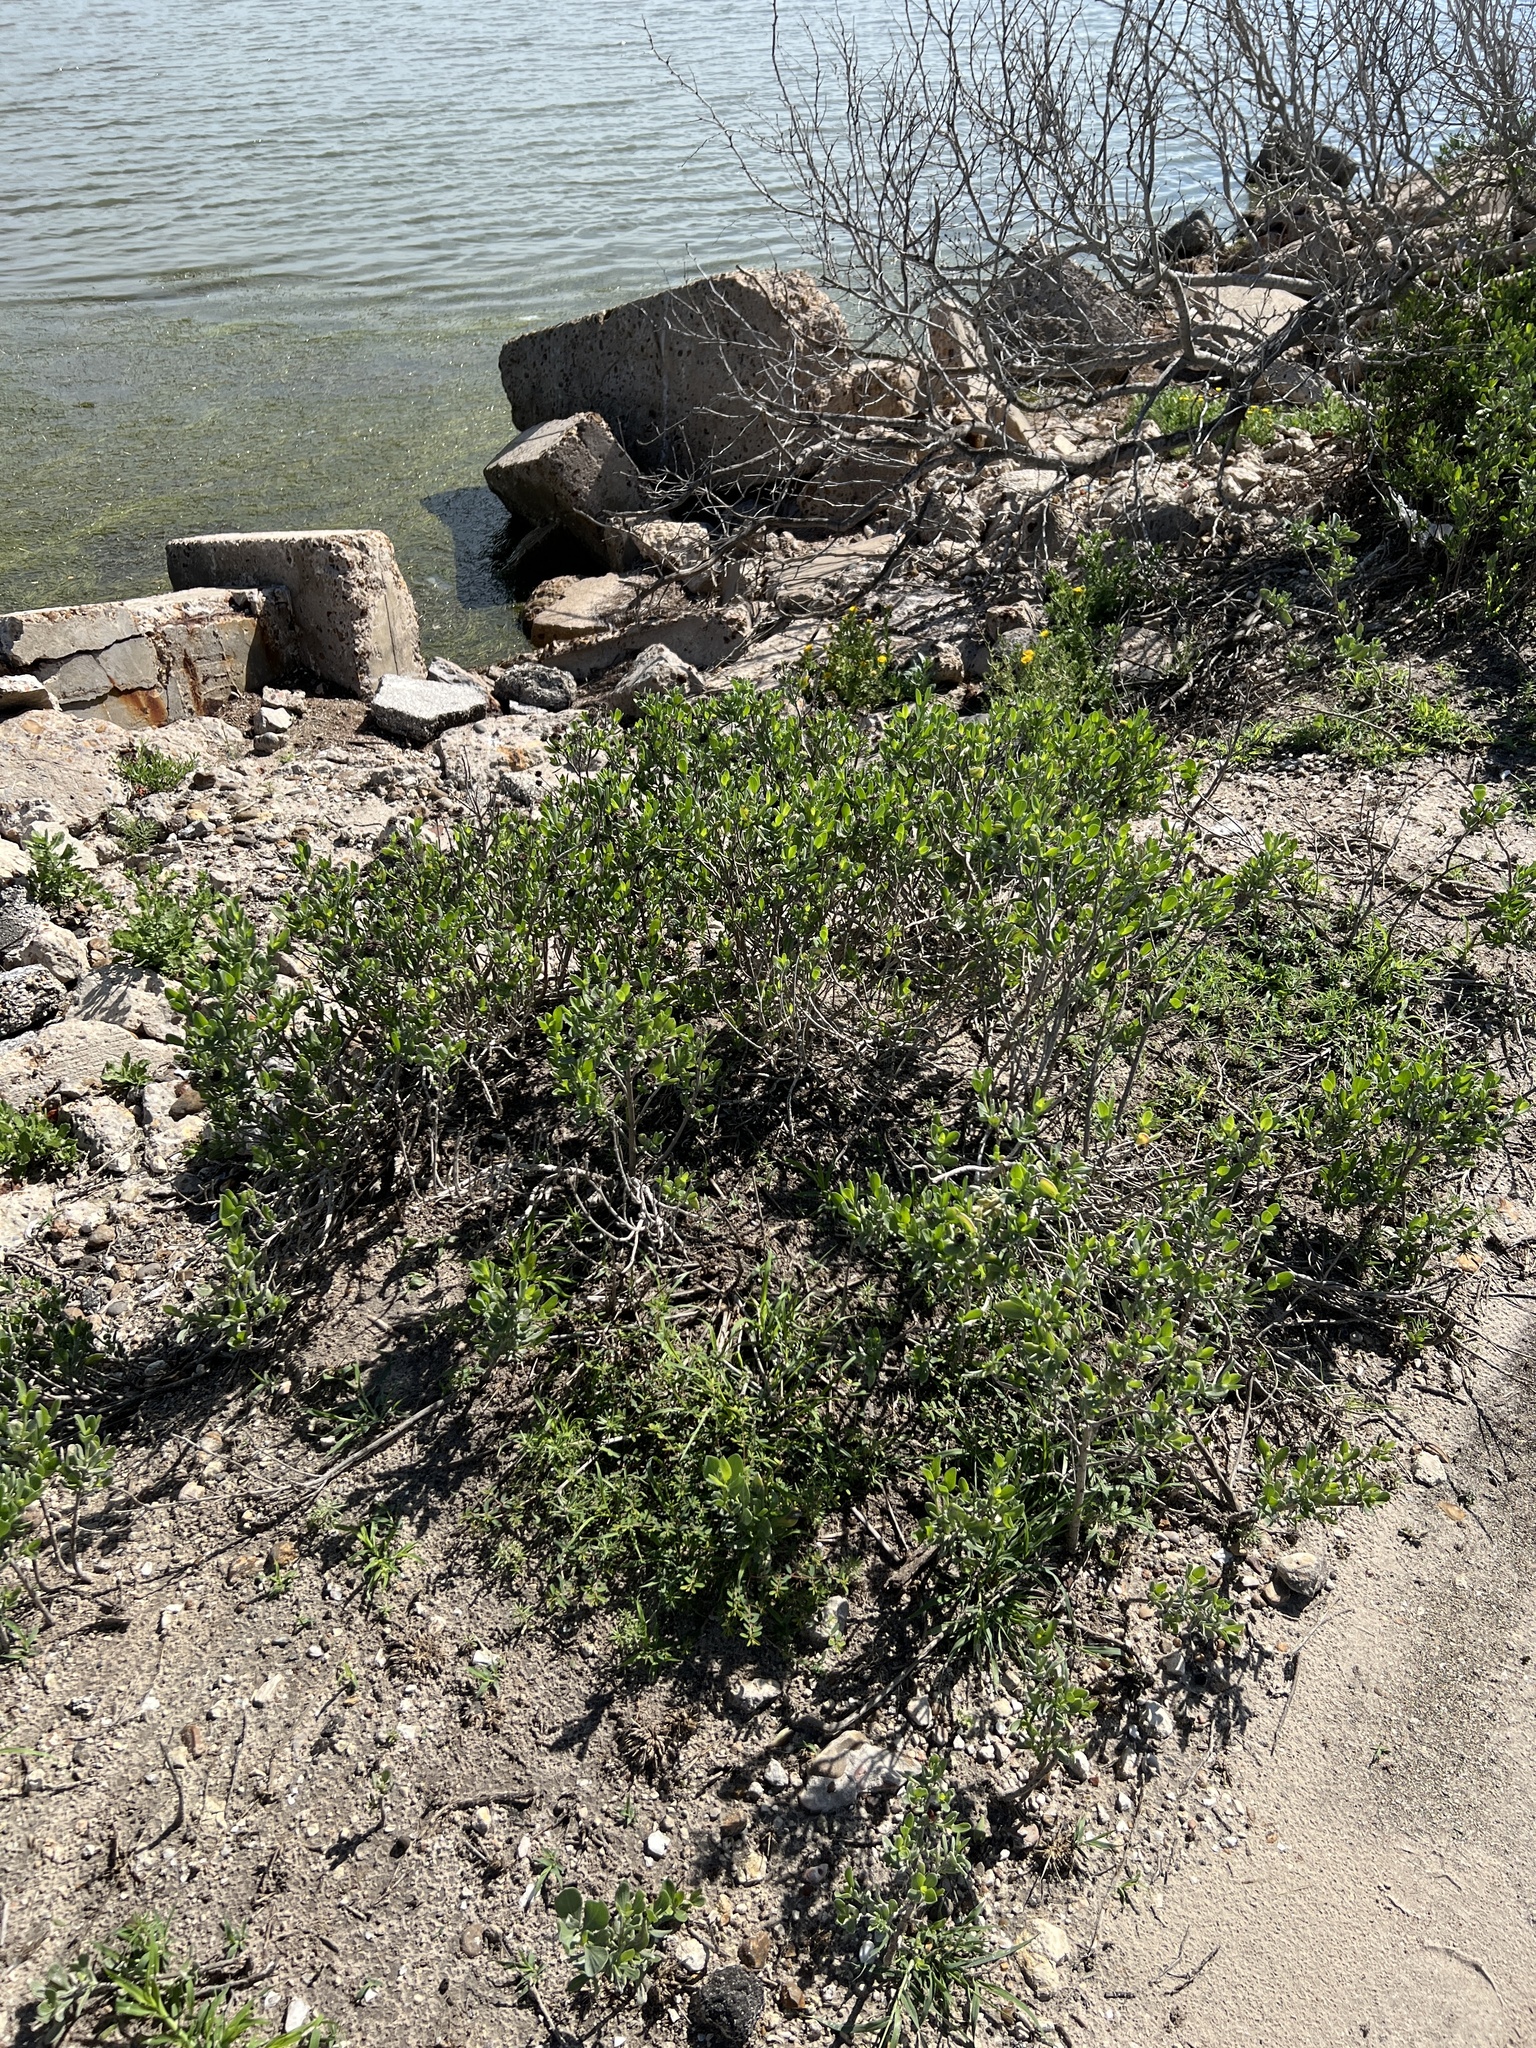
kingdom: Plantae
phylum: Tracheophyta
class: Magnoliopsida
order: Asterales
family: Asteraceae
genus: Borrichia
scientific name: Borrichia frutescens
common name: Sea oxeye
